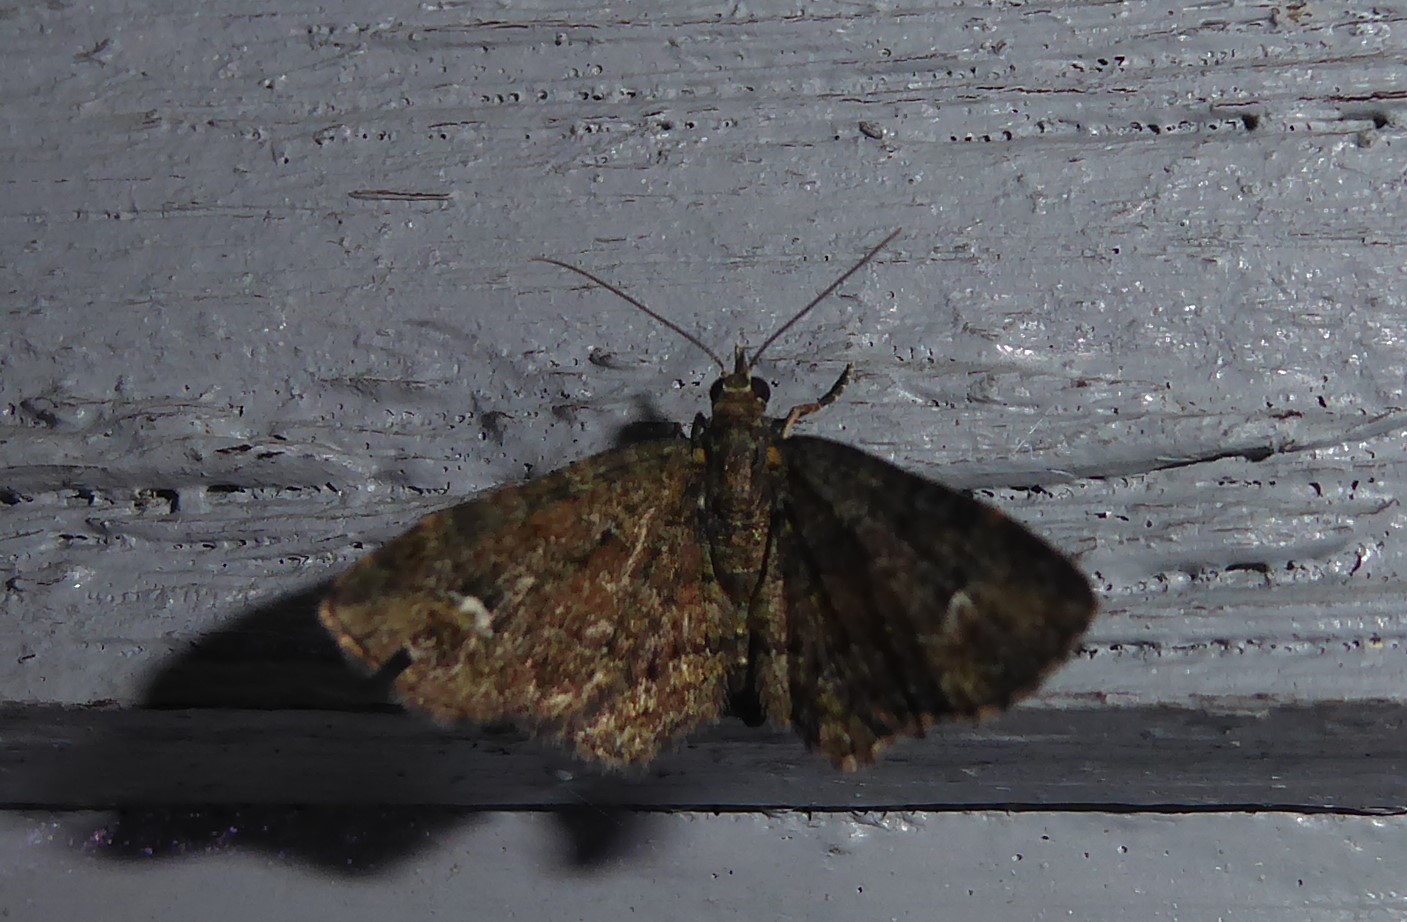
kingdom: Animalia
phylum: Arthropoda
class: Insecta
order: Lepidoptera
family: Geometridae
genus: Pasiphilodes
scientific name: Pasiphilodes testulata
